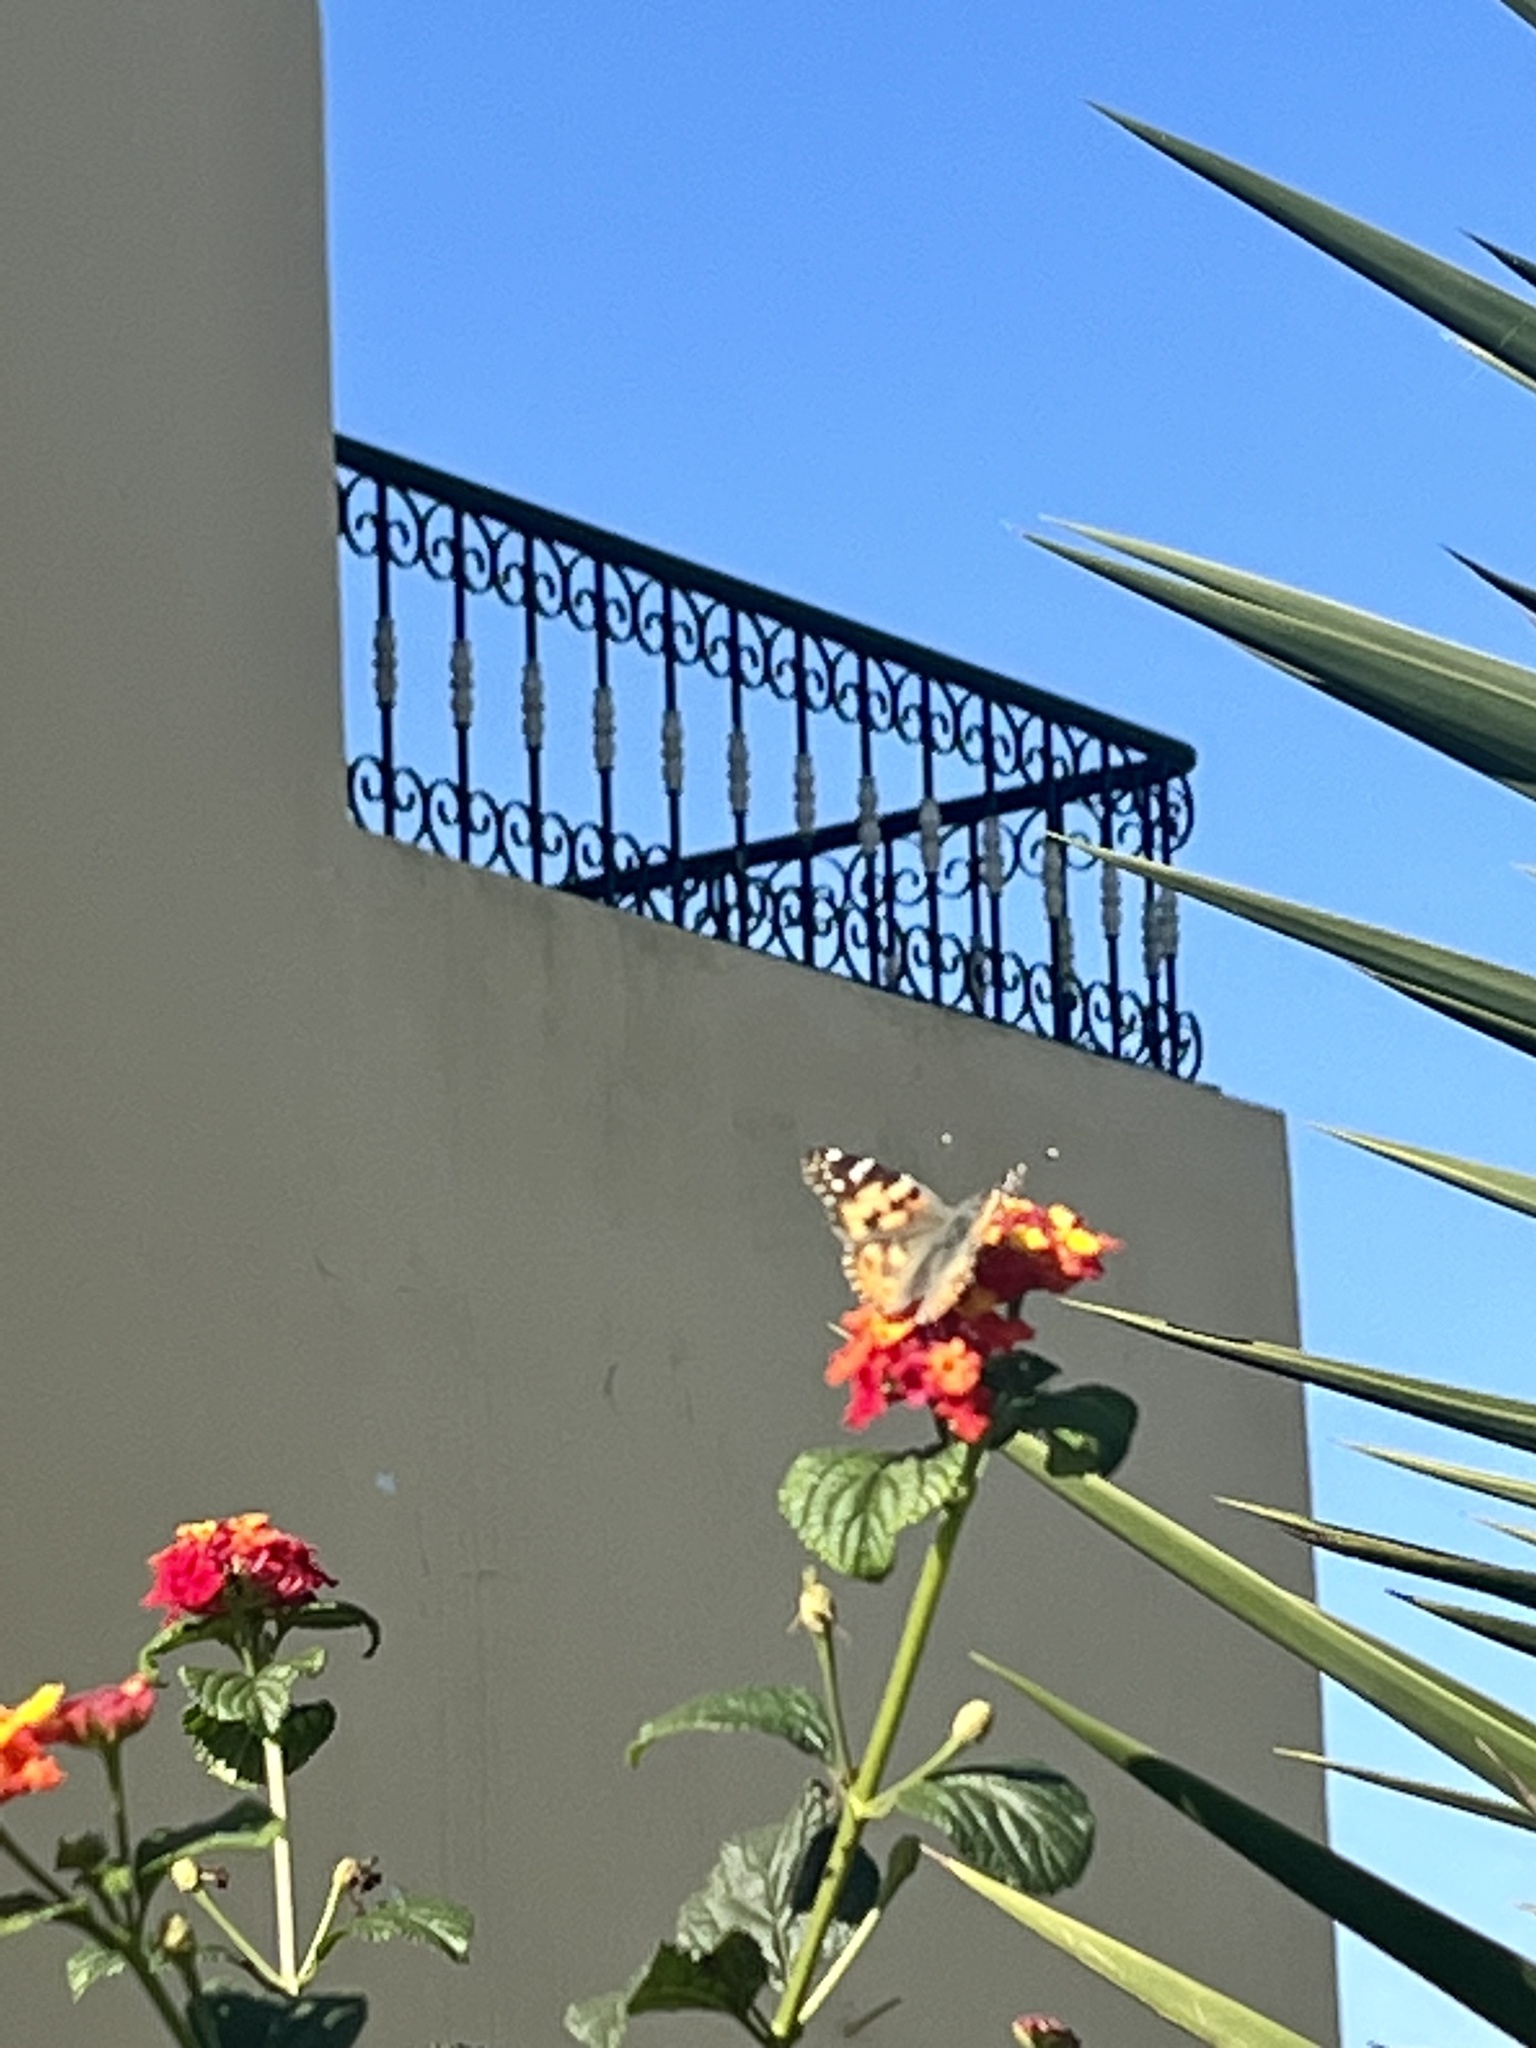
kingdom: Animalia
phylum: Arthropoda
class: Insecta
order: Lepidoptera
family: Nymphalidae
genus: Vanessa
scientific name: Vanessa cardui
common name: Painted lady
